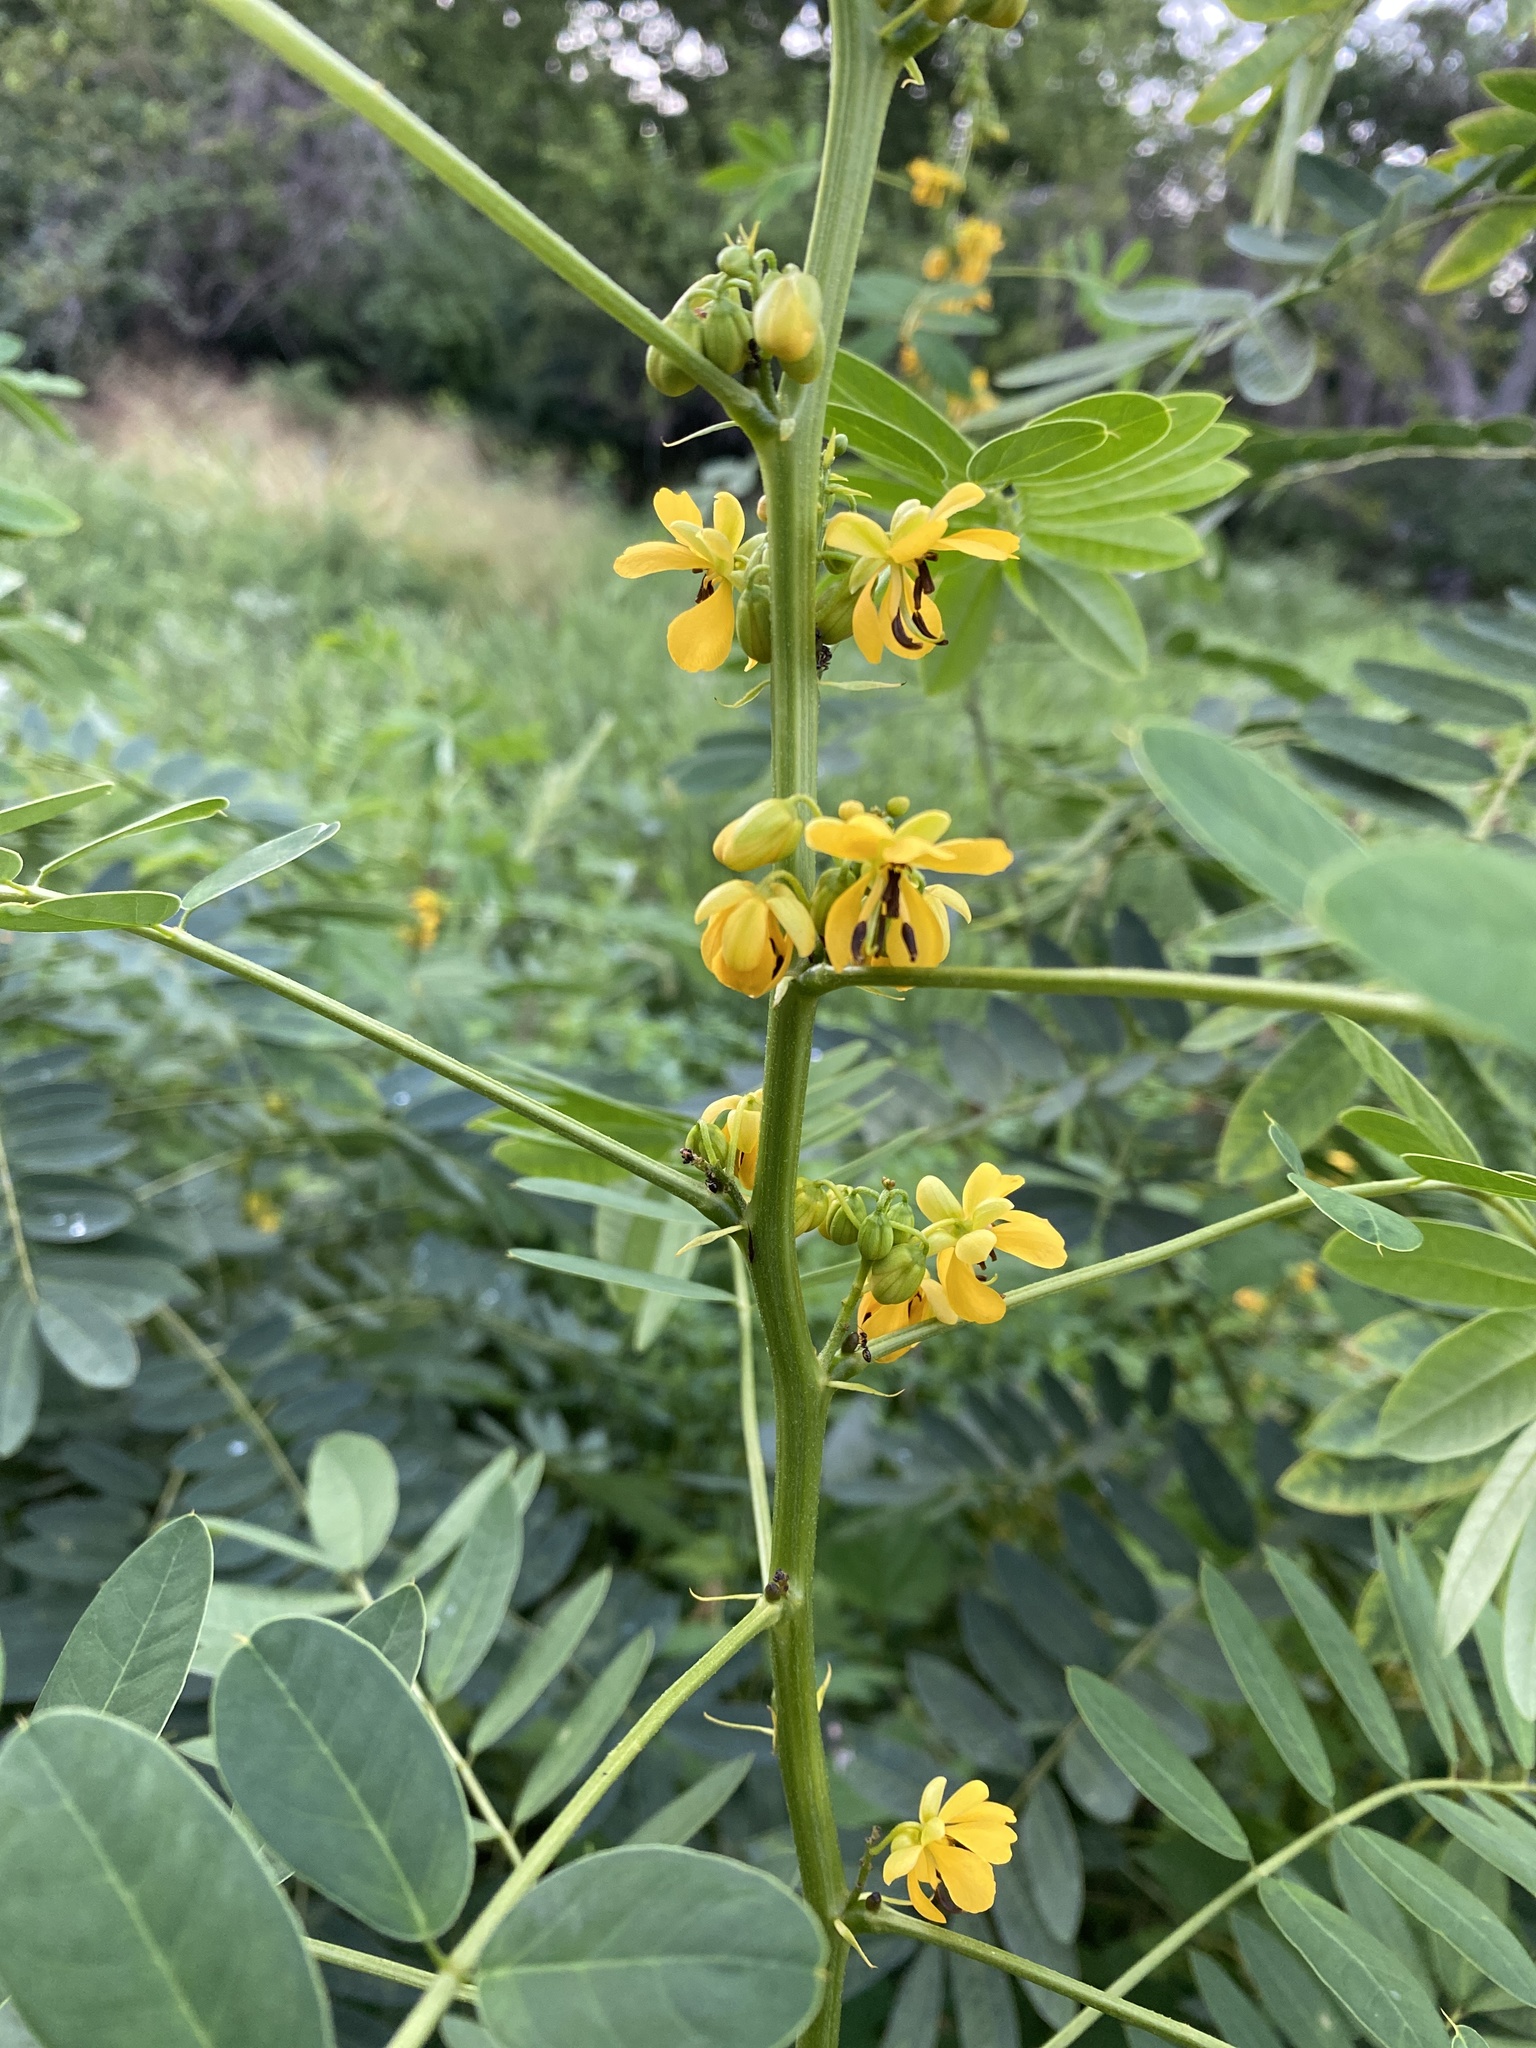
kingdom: Plantae
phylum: Tracheophyta
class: Magnoliopsida
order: Fabales
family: Fabaceae
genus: Senna
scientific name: Senna marilandica
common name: American senna
